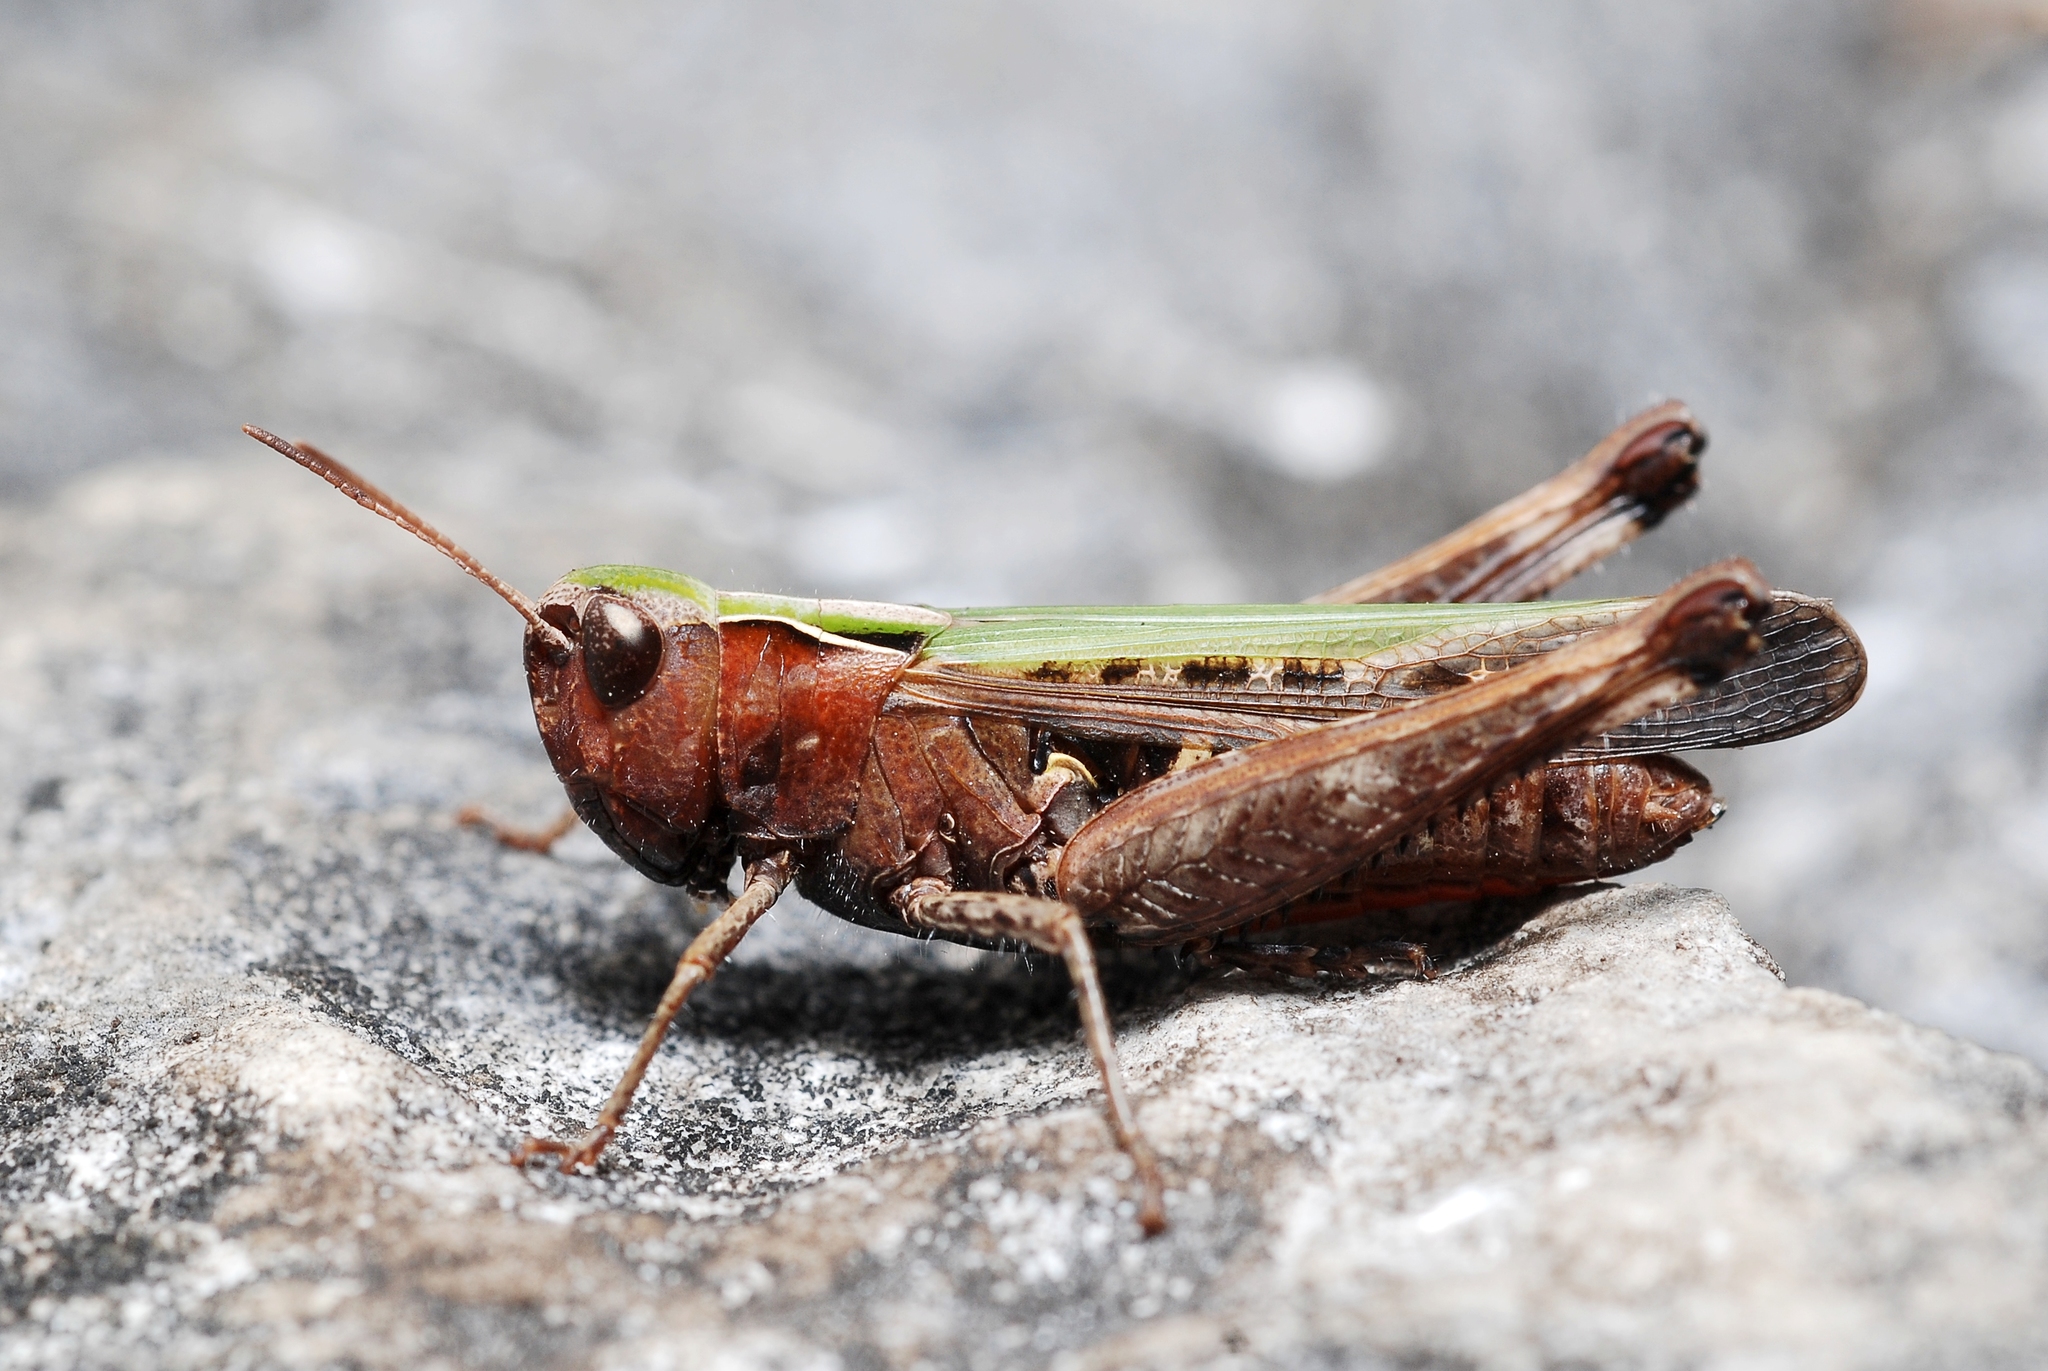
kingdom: Animalia
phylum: Arthropoda
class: Insecta
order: Orthoptera
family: Acrididae
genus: Omocestus
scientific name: Omocestus rufipes
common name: Woodland grasshopper
